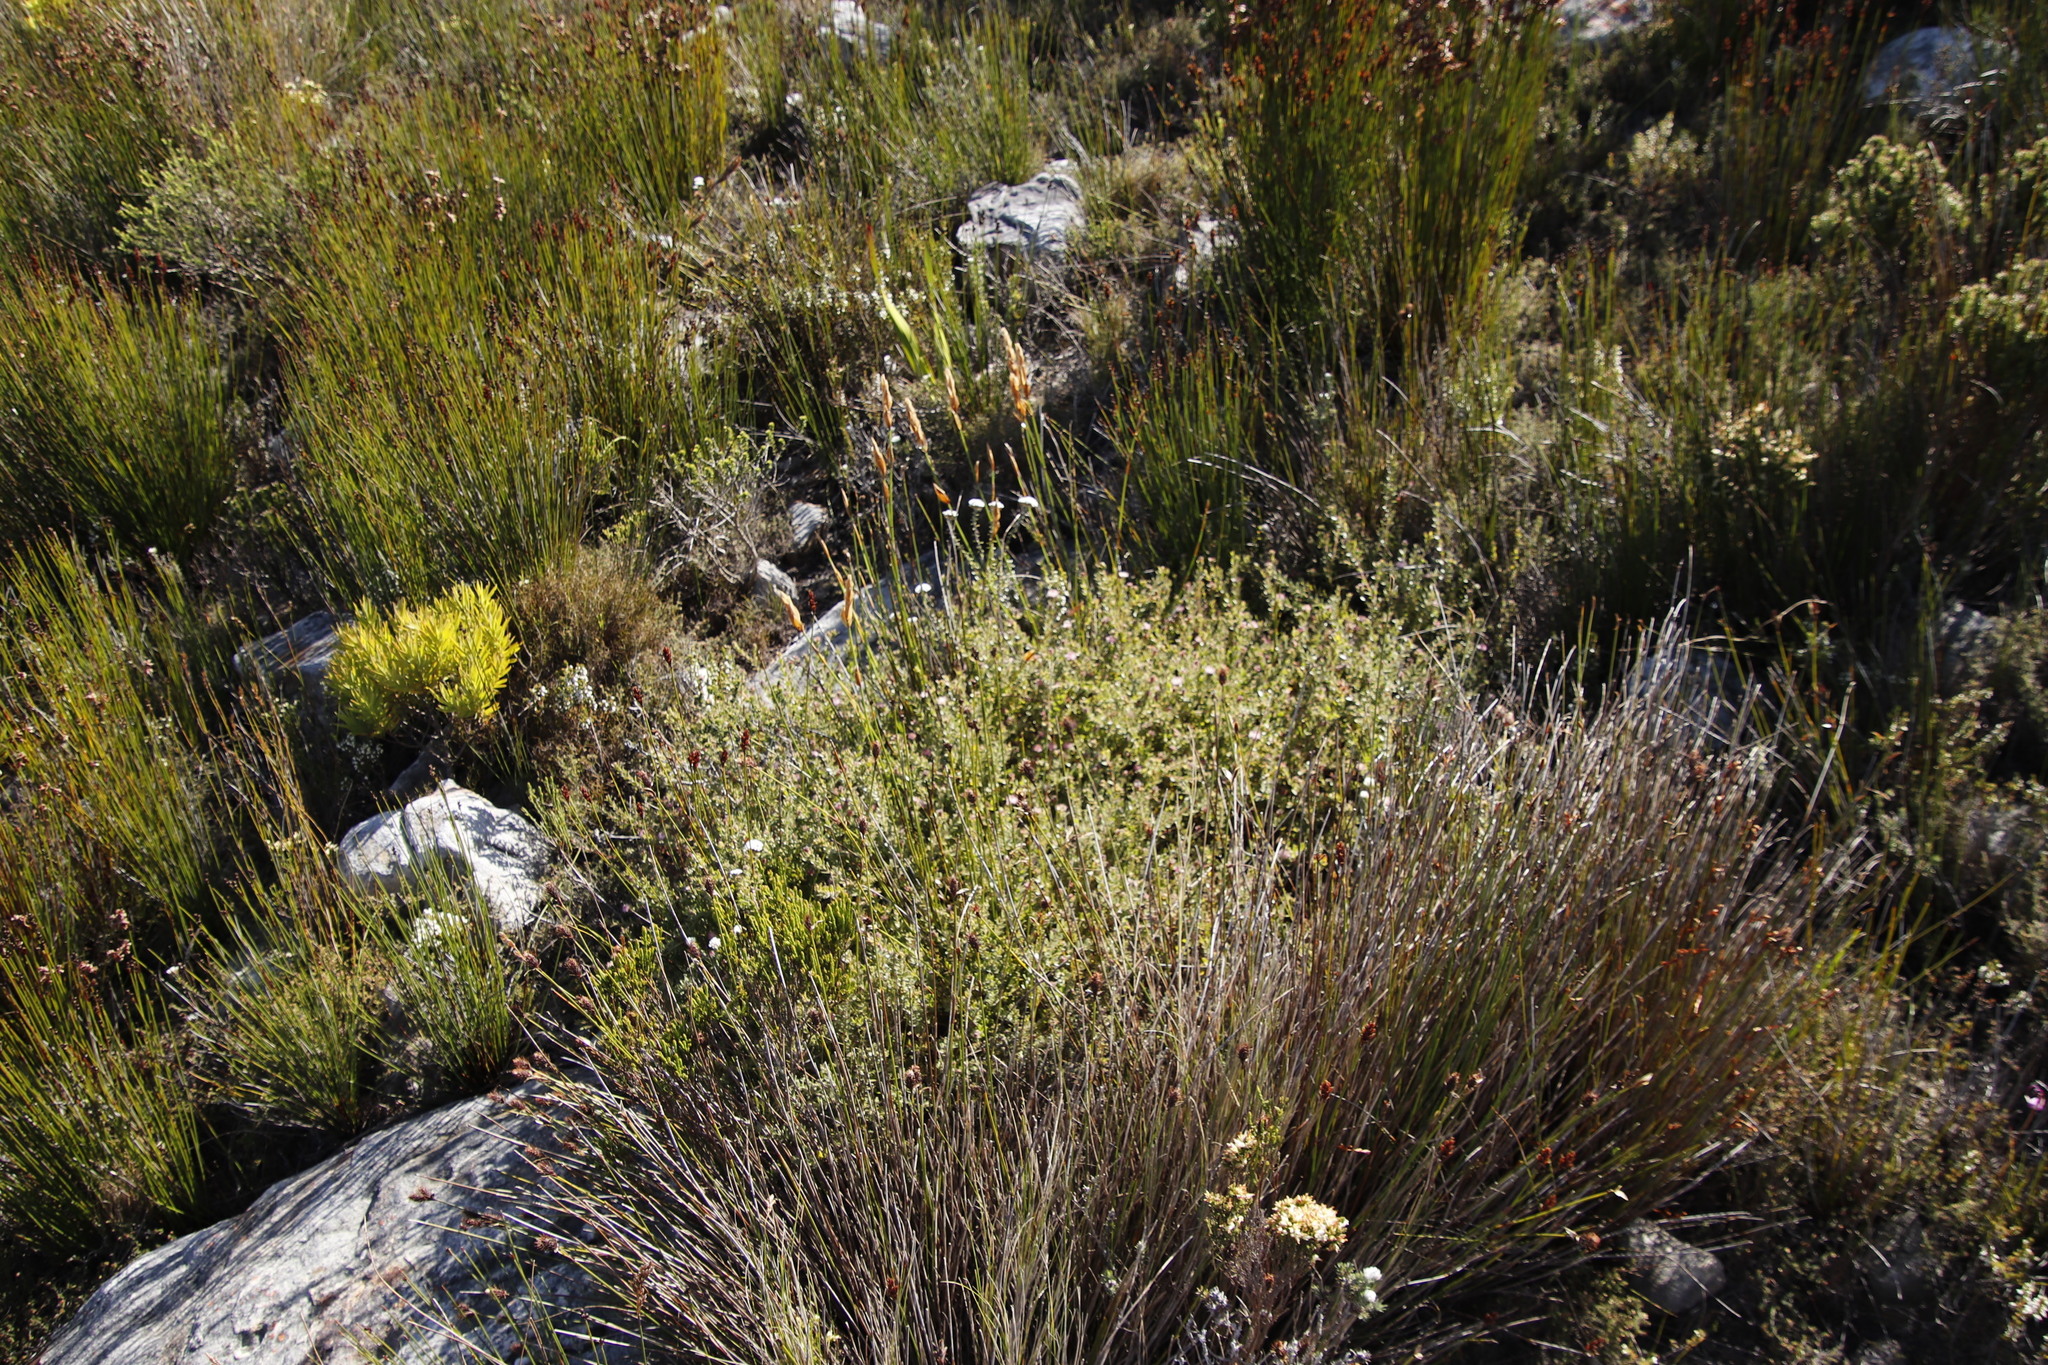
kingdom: Plantae
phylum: Tracheophyta
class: Magnoliopsida
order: Proteales
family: Proteaceae
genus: Diastella
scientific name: Diastella divaricata
